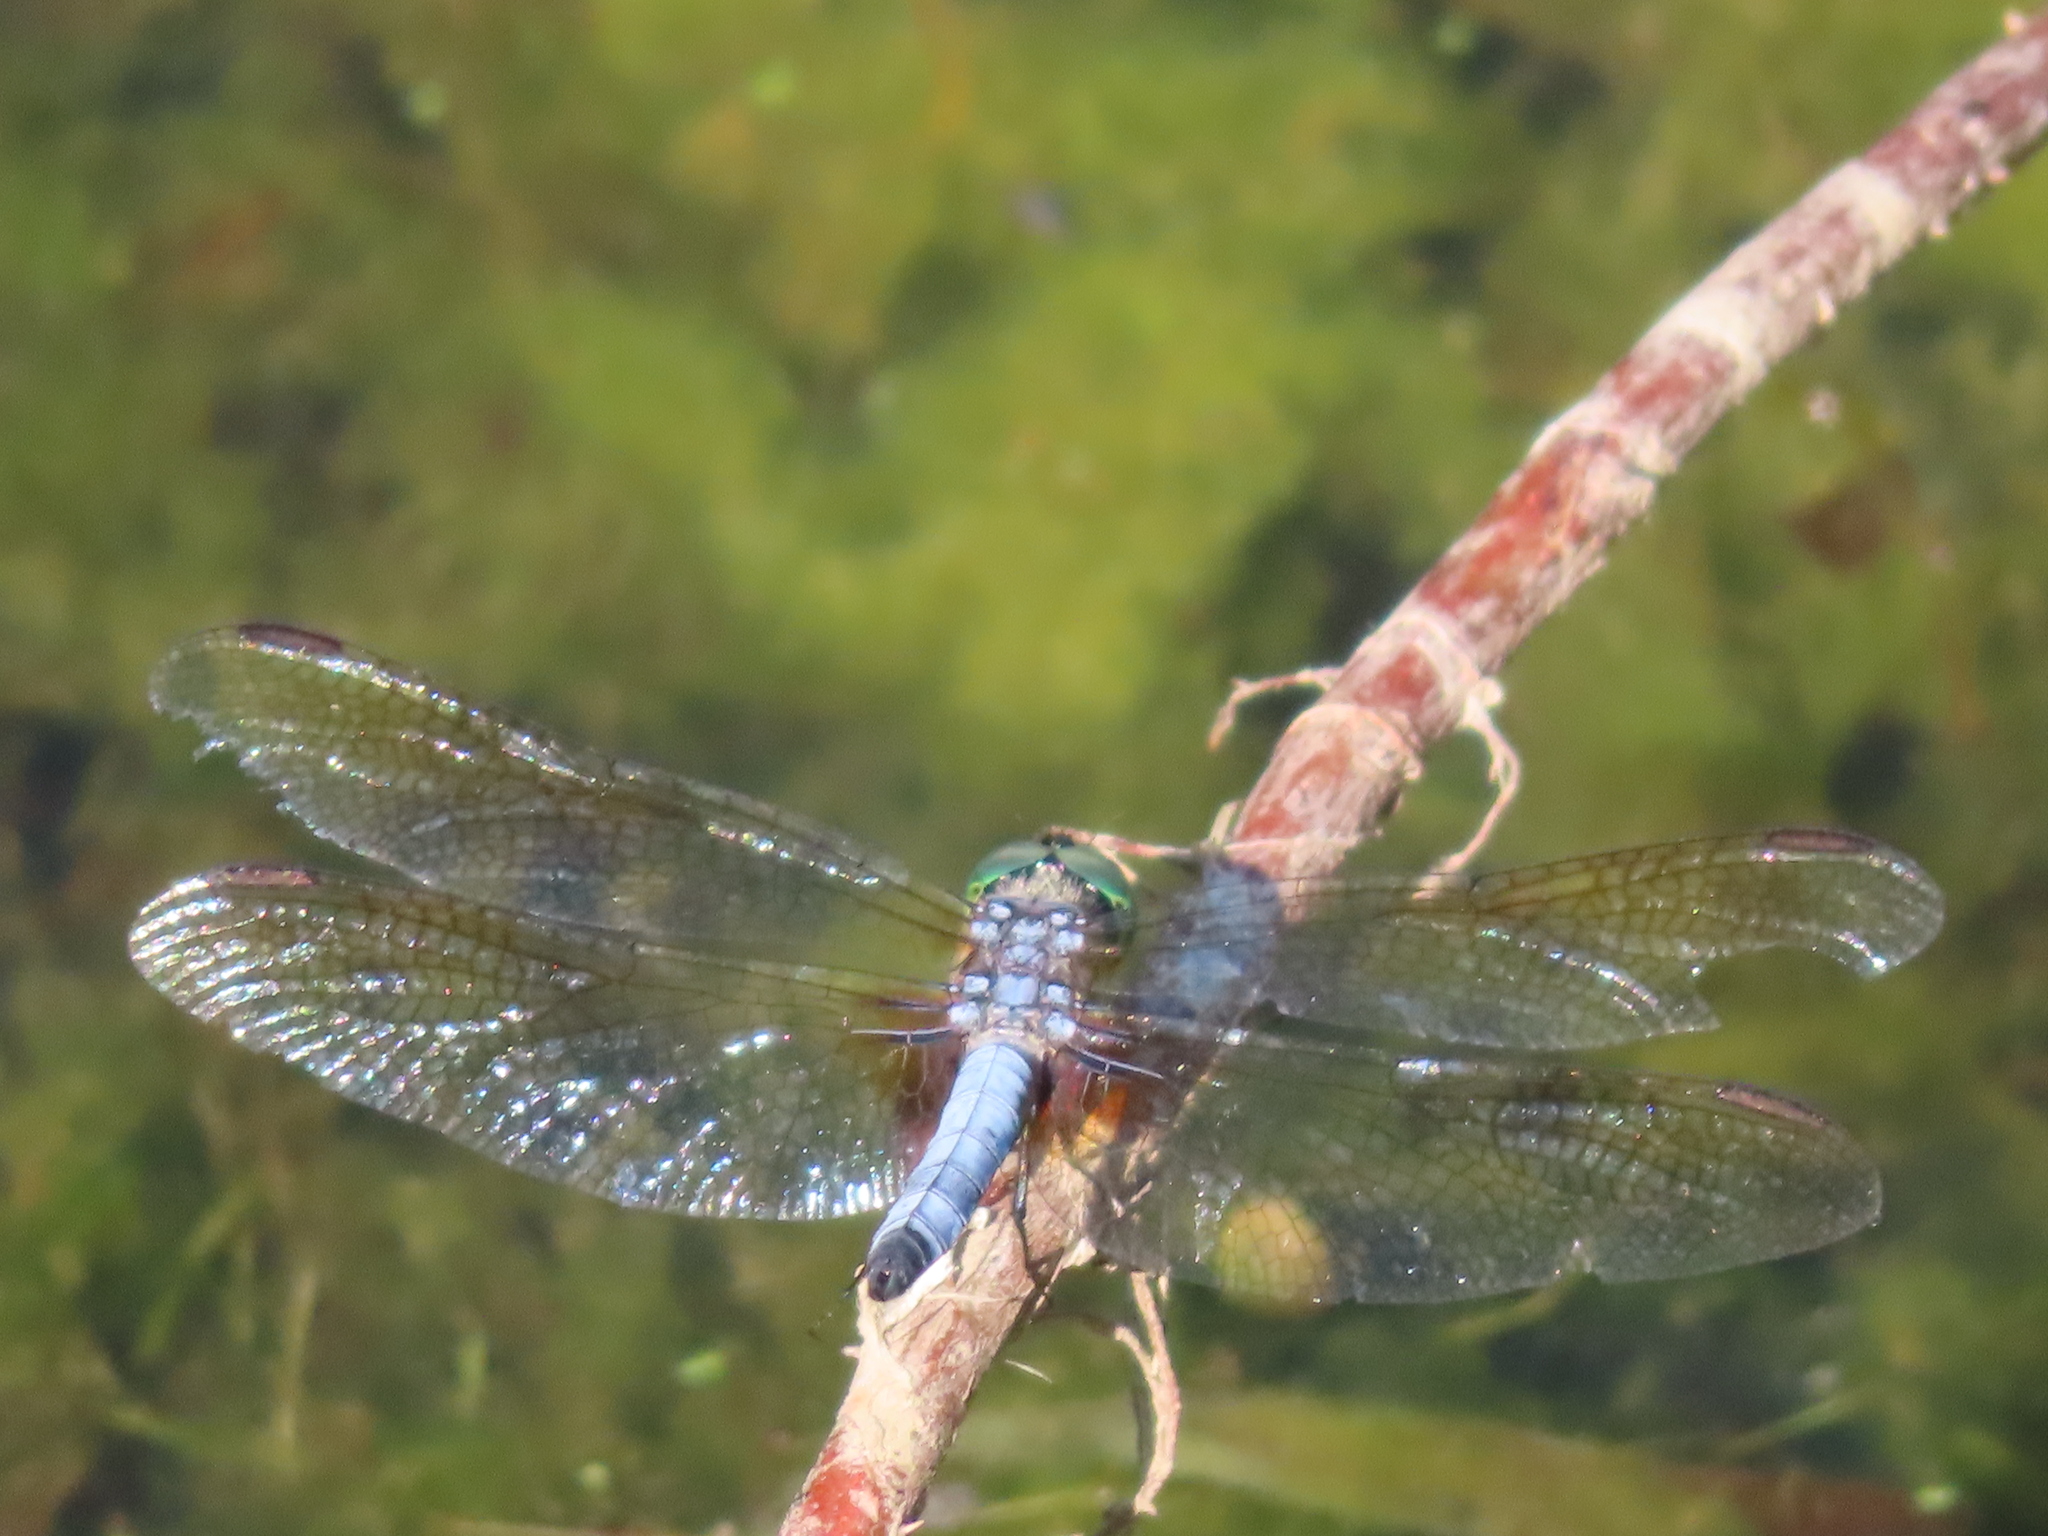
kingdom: Animalia
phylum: Arthropoda
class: Insecta
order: Odonata
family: Libellulidae
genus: Pachydiplax
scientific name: Pachydiplax longipennis
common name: Blue dasher
